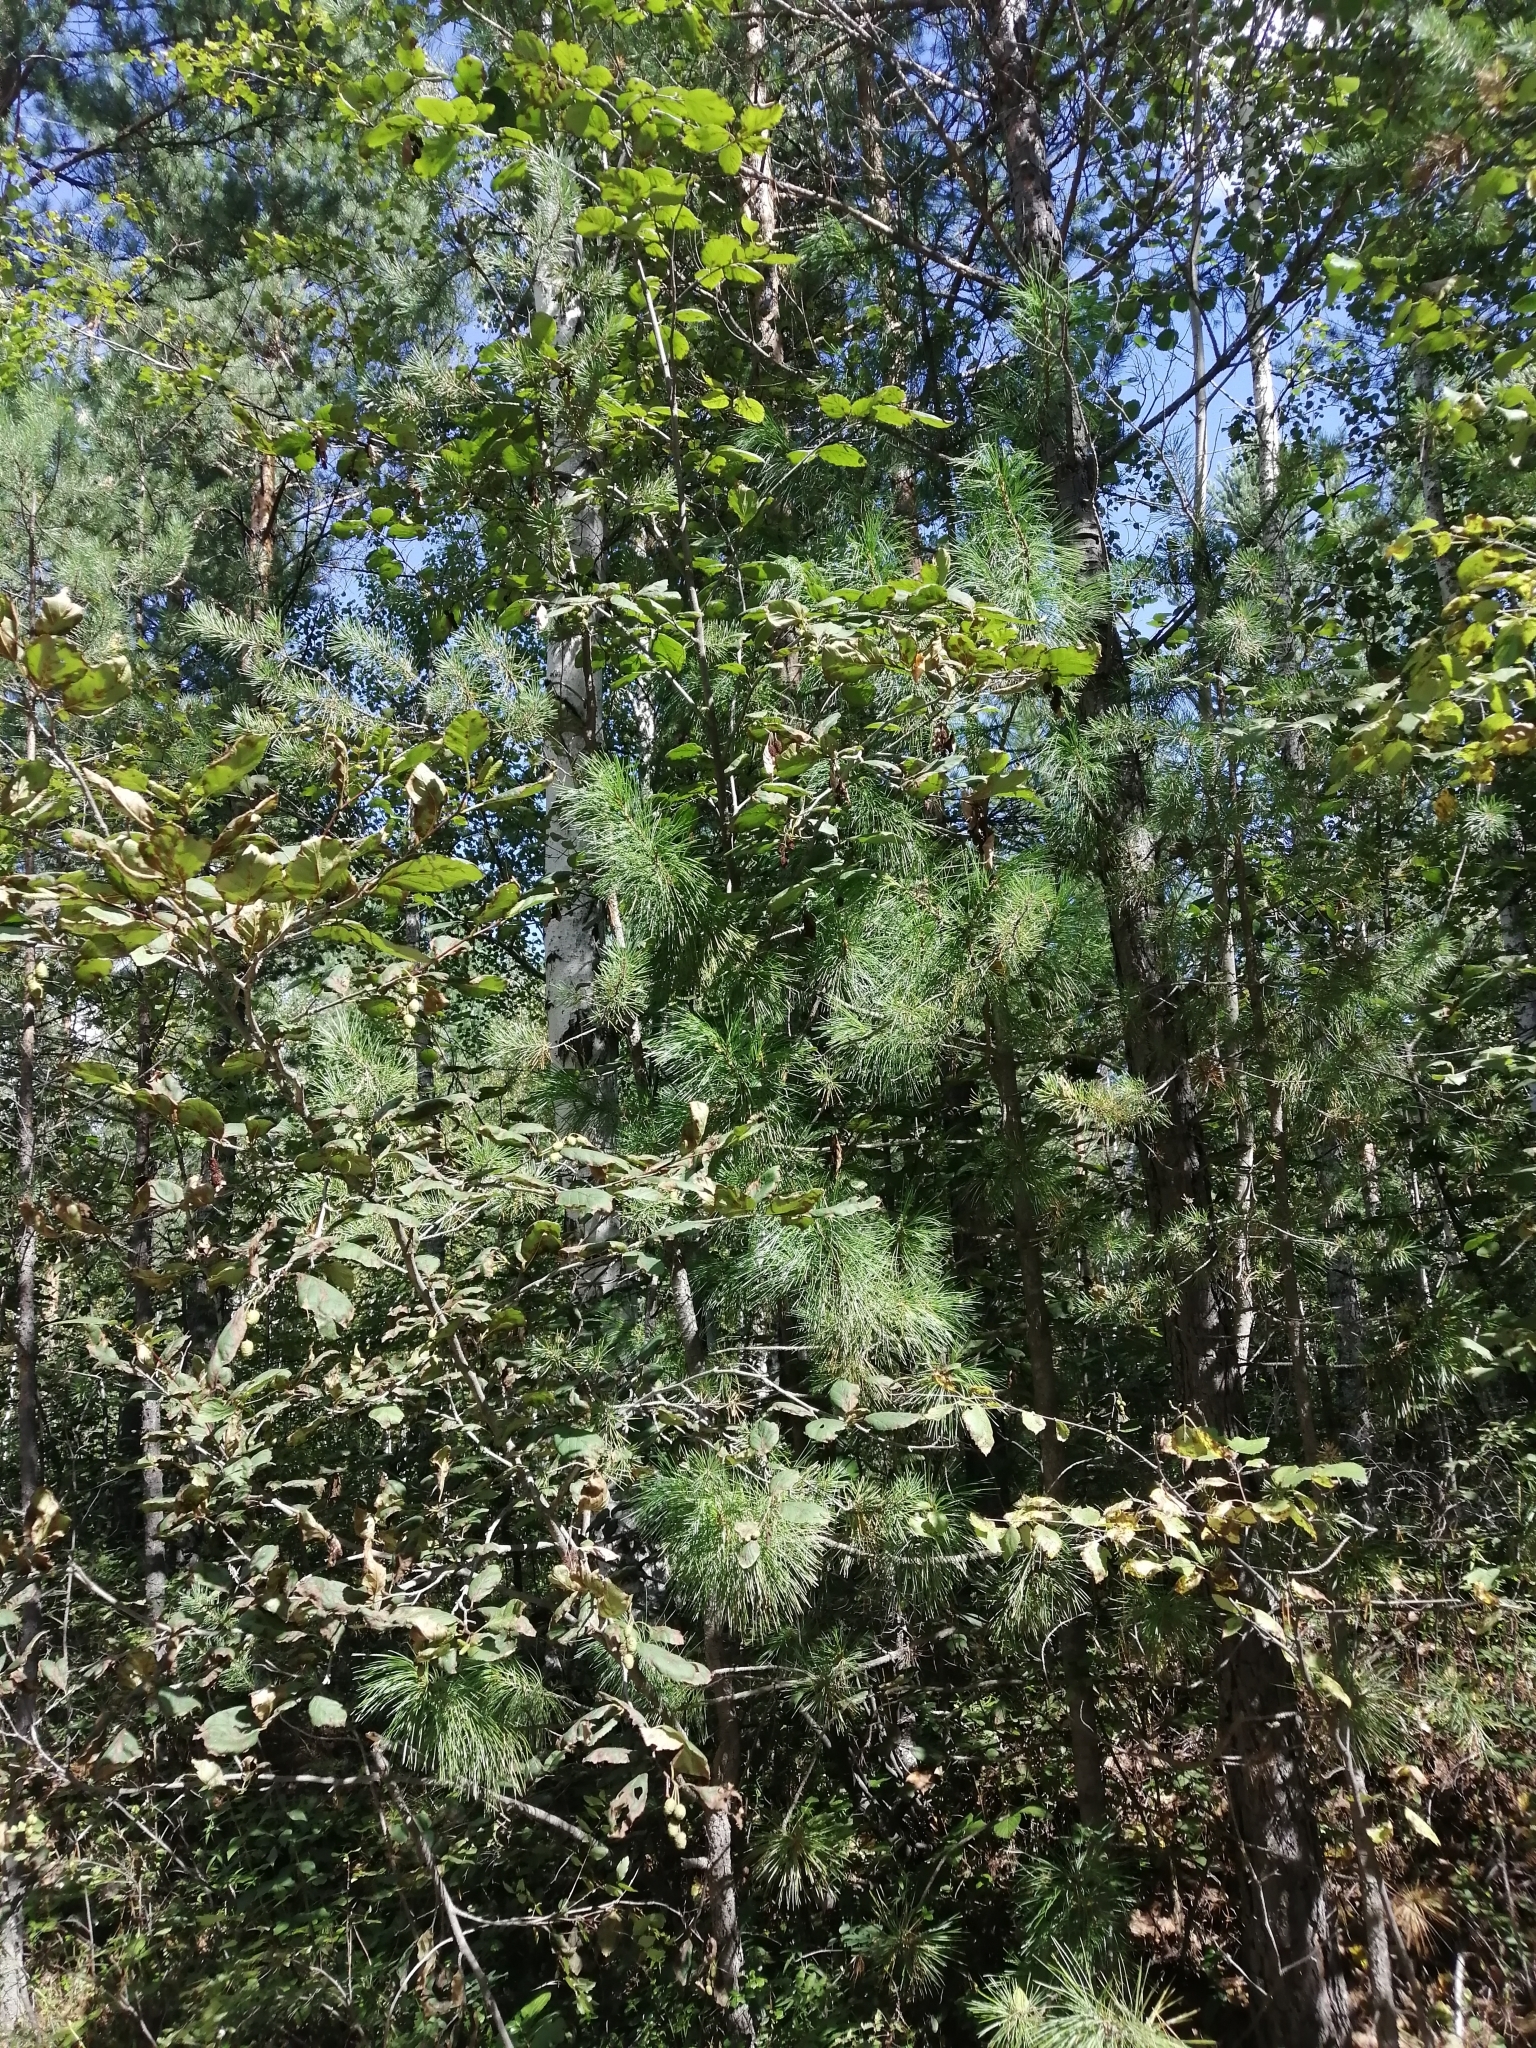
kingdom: Plantae
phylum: Tracheophyta
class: Pinopsida
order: Pinales
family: Pinaceae
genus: Pinus
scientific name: Pinus sibirica
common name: Siberian pine
